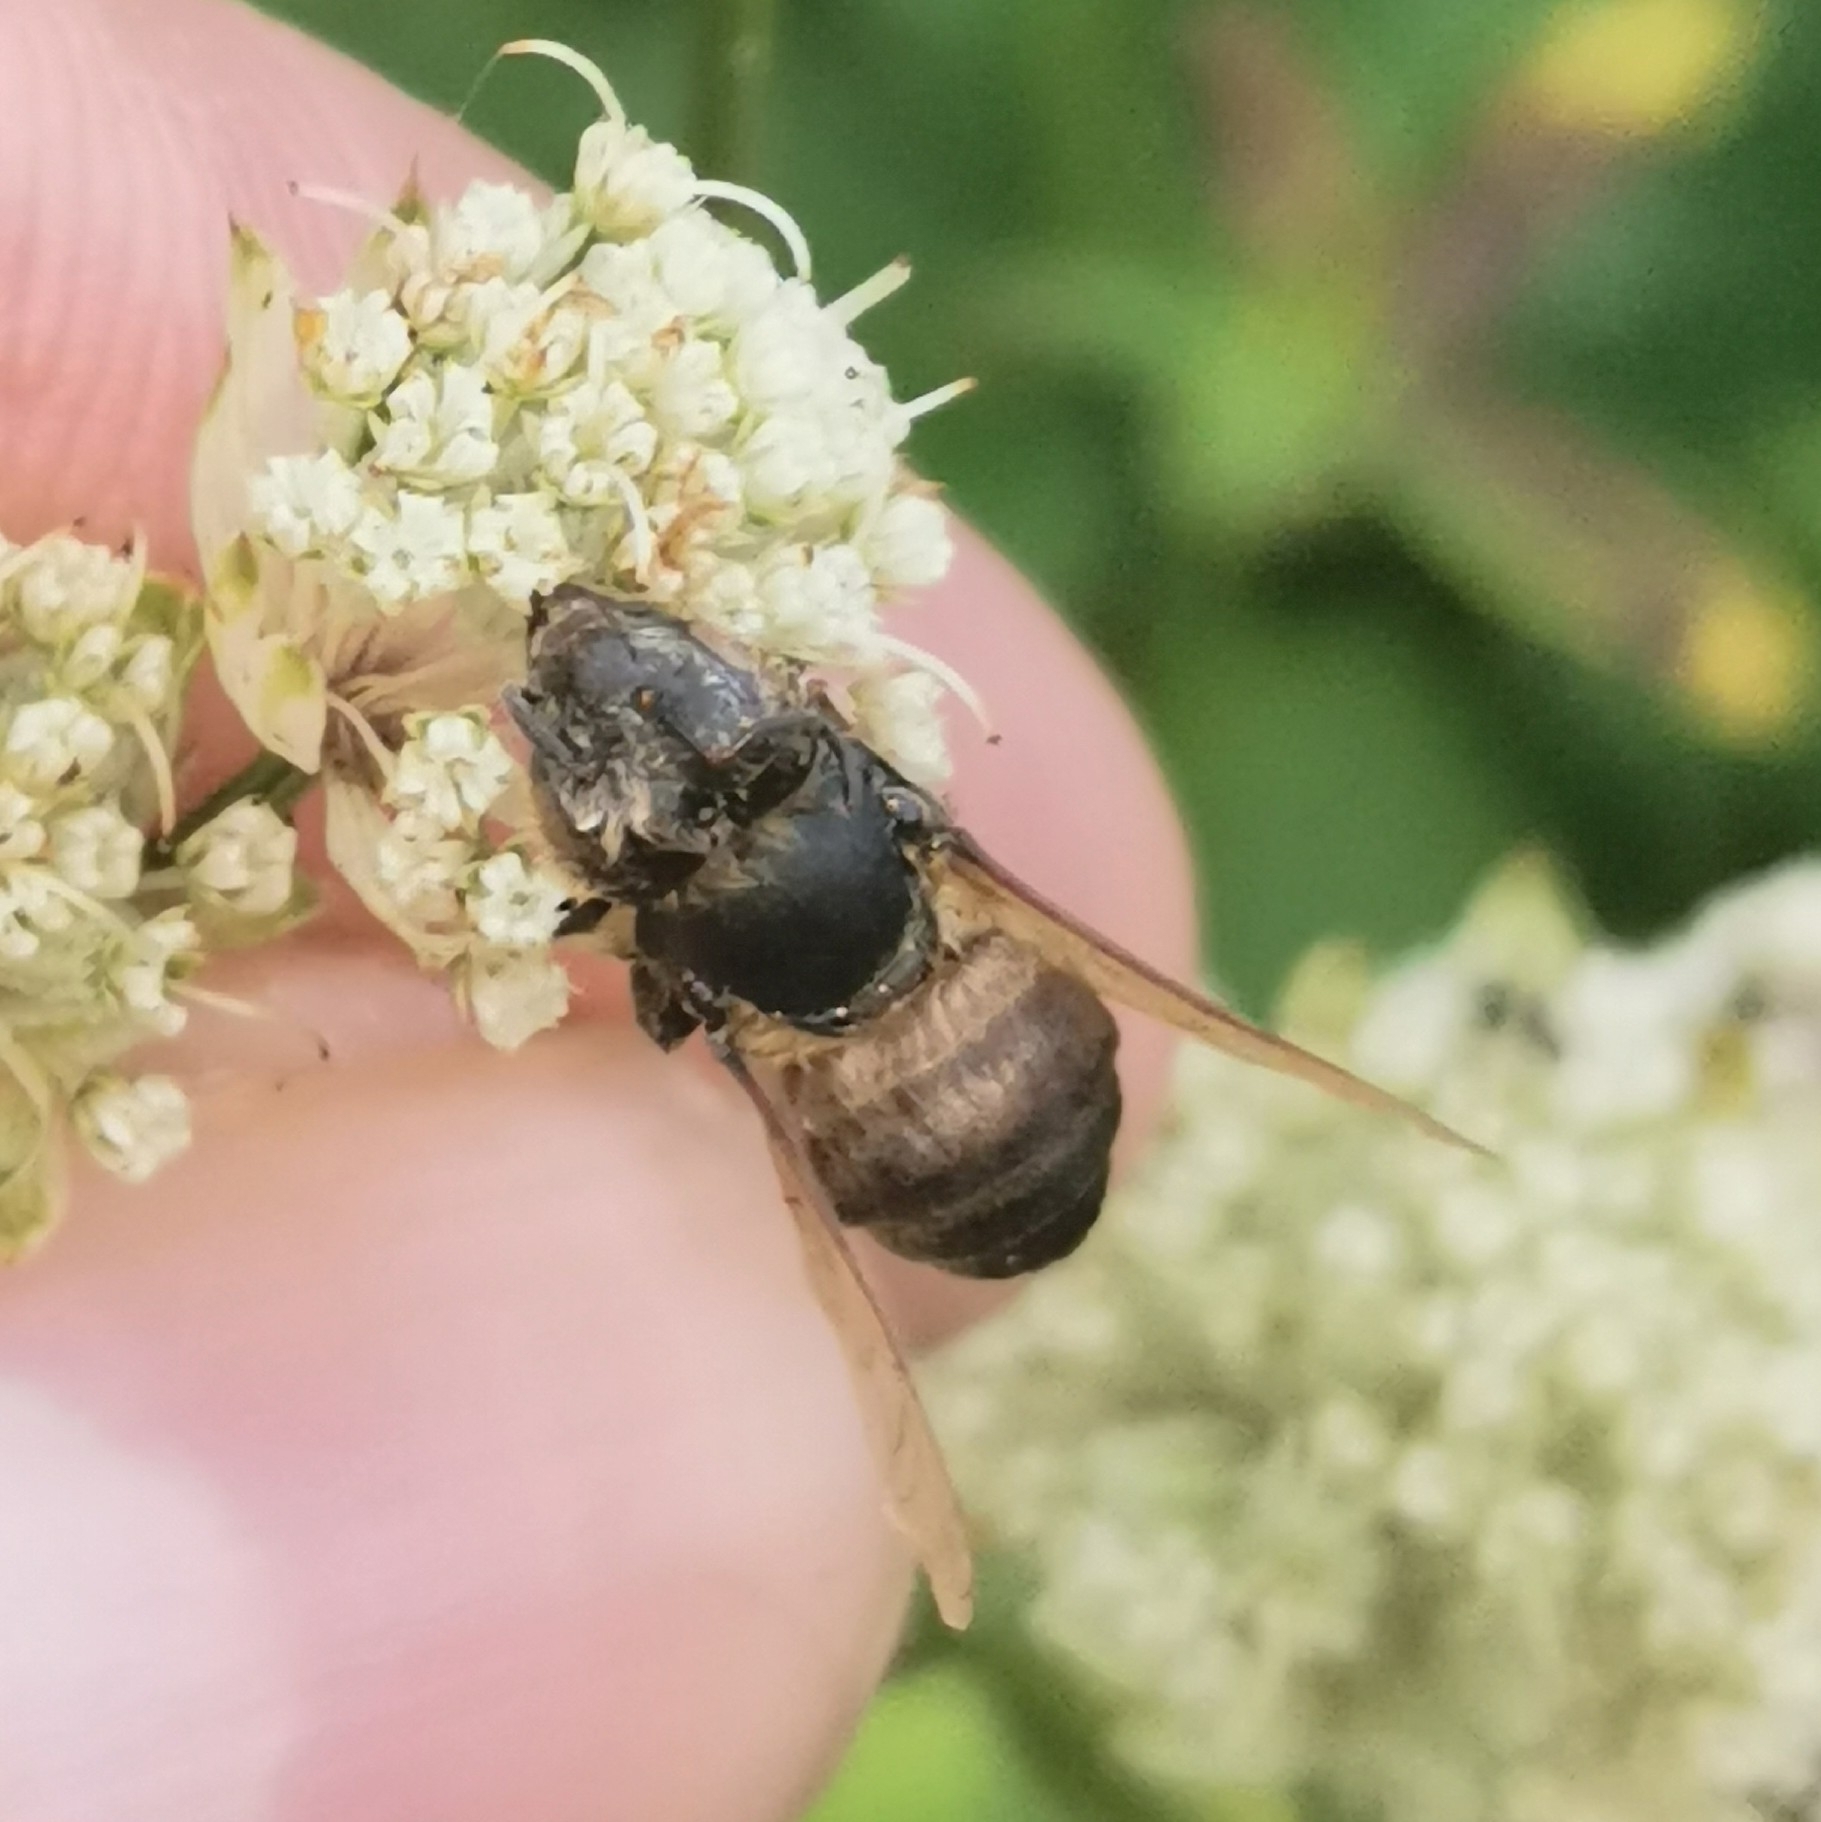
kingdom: Animalia
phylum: Arthropoda
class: Insecta
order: Hymenoptera
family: Apidae
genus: Apis
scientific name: Apis mellifera
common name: Honey bee
